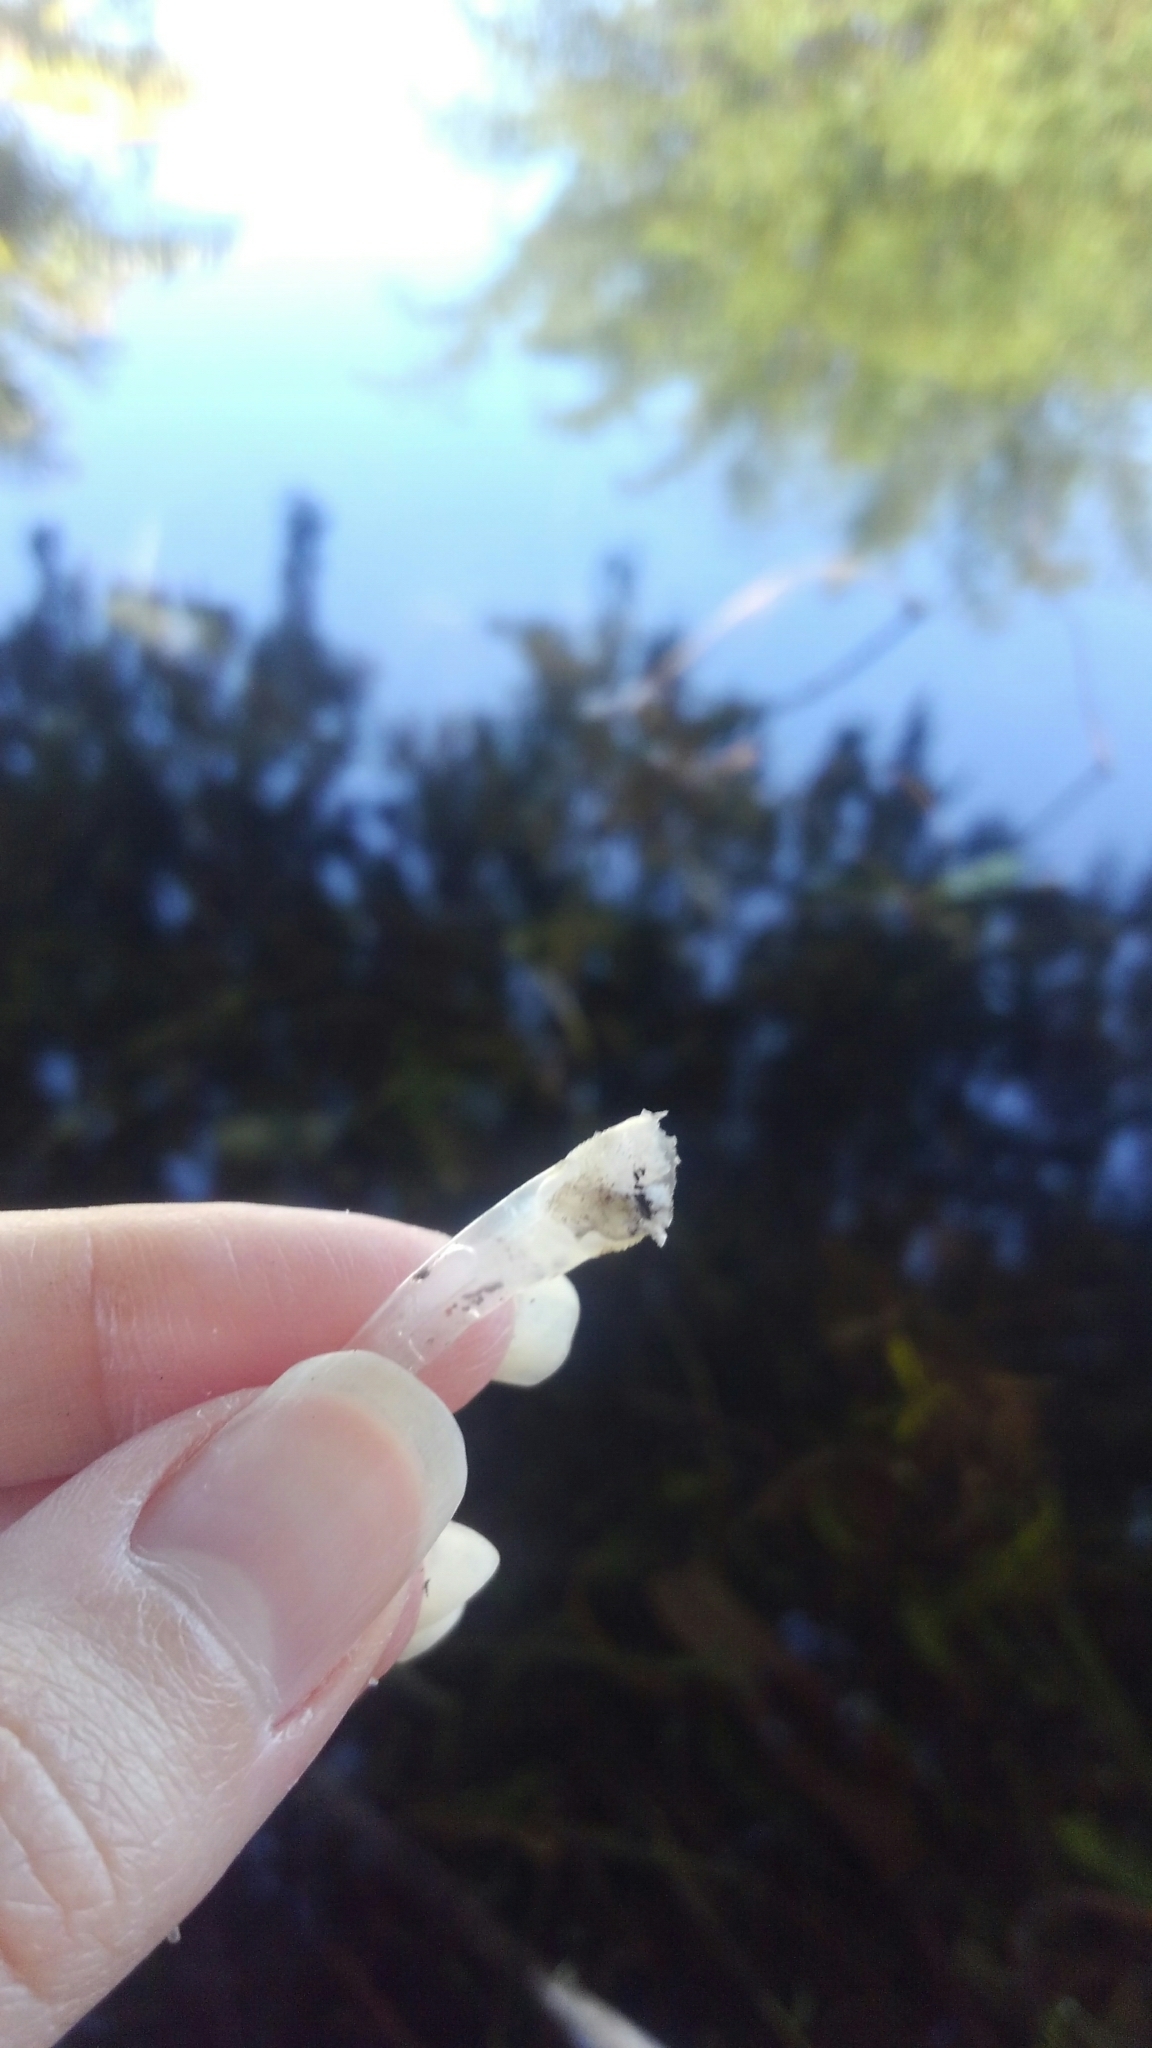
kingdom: Animalia
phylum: Chordata
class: Squamata
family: Iguanidae
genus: Iguana
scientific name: Iguana iguana
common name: Green iguana
